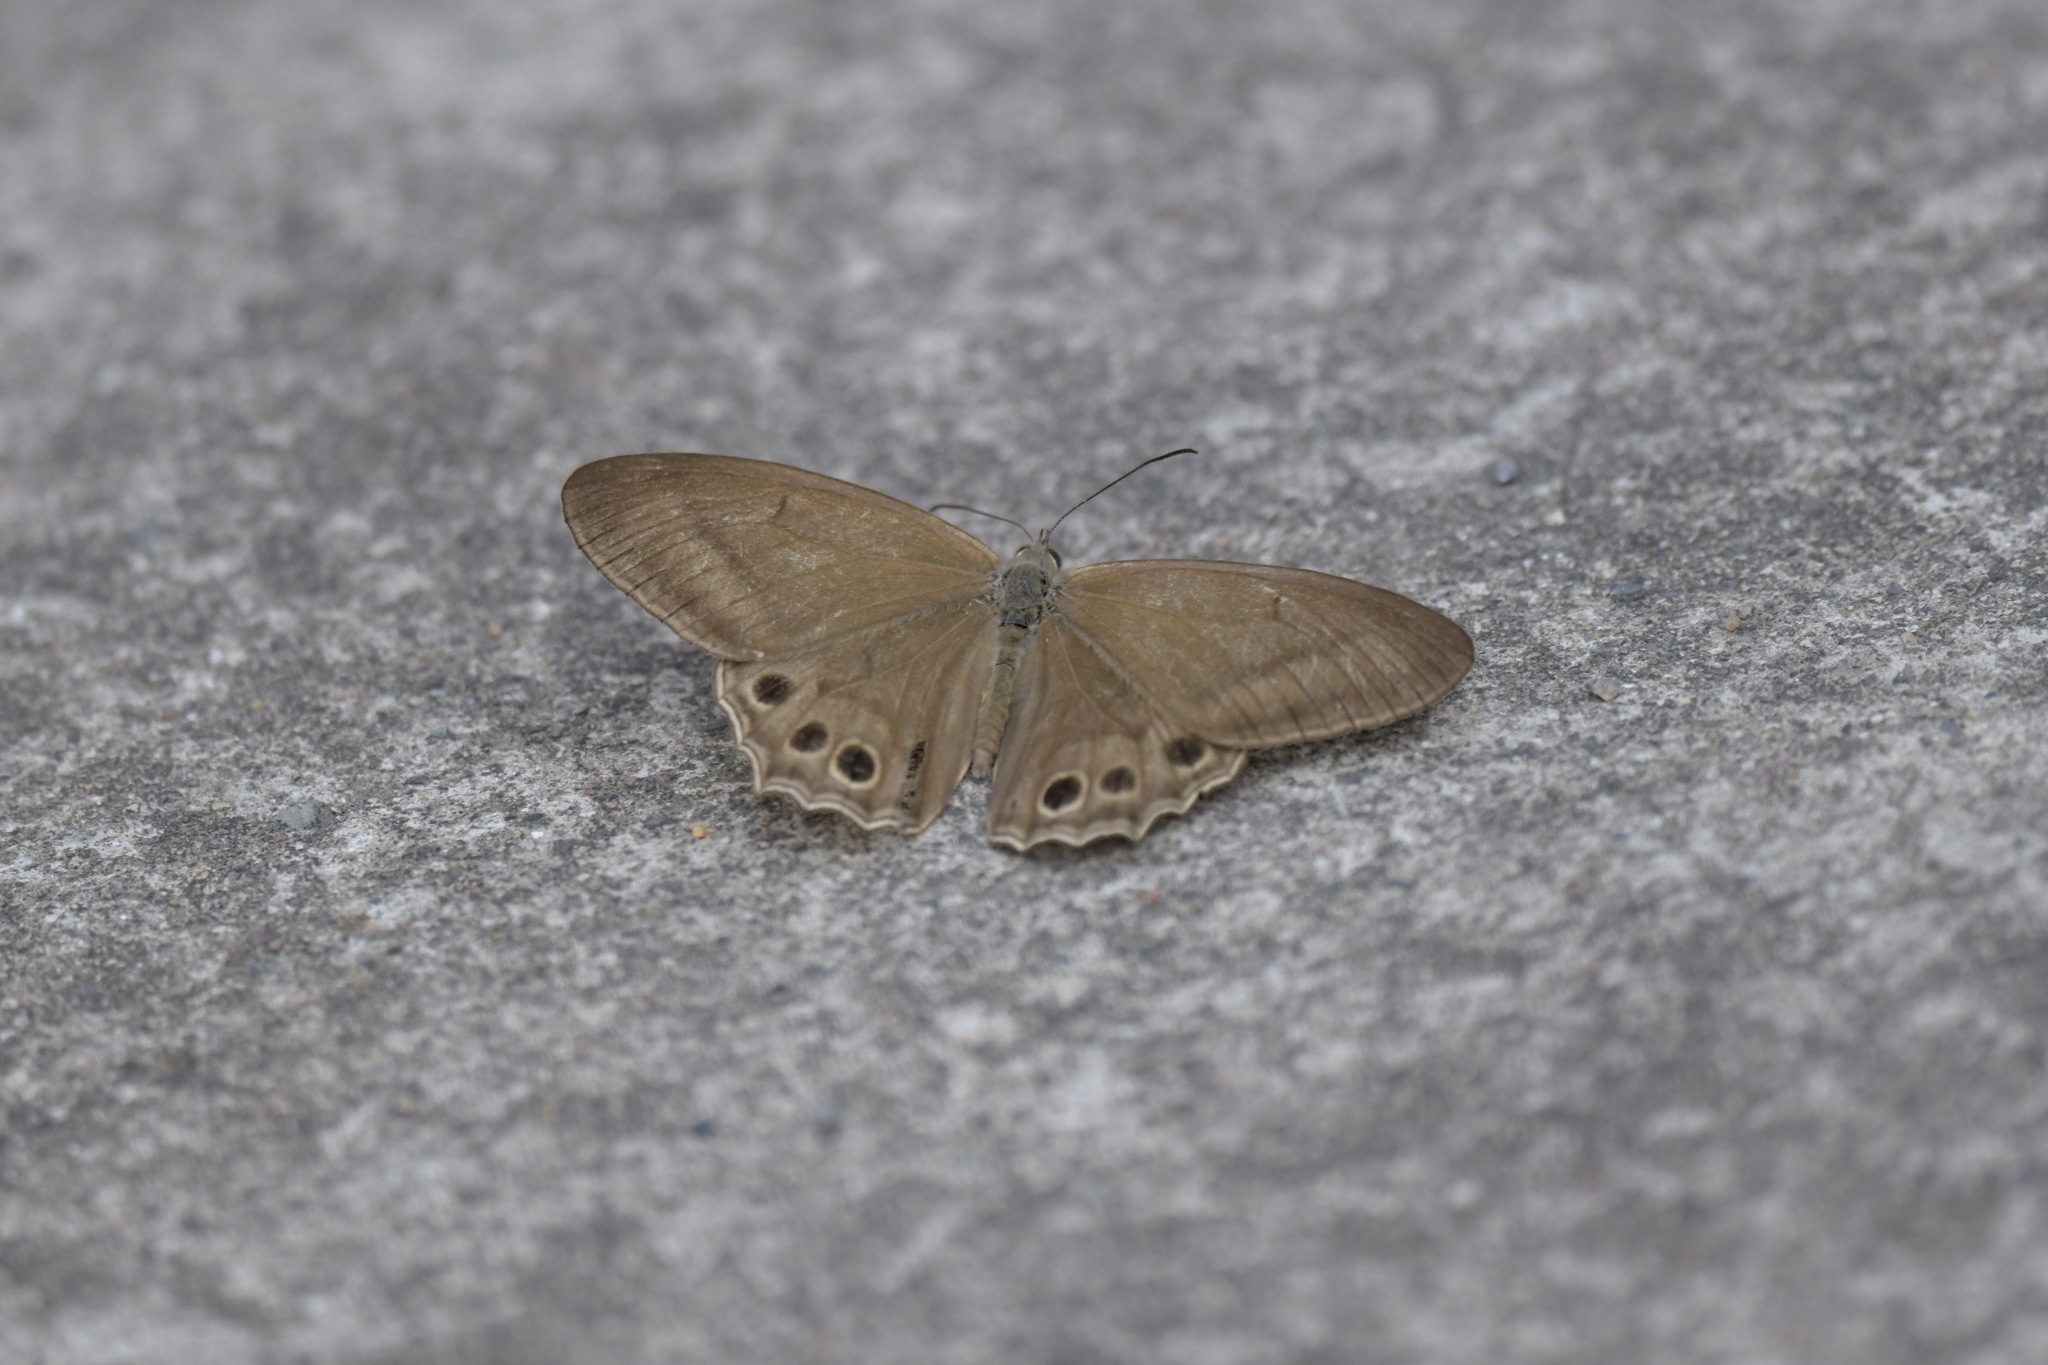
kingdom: Animalia
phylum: Arthropoda
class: Insecta
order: Lepidoptera
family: Nymphalidae
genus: Lethe
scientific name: Lethe syrcis
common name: Yellow forester
